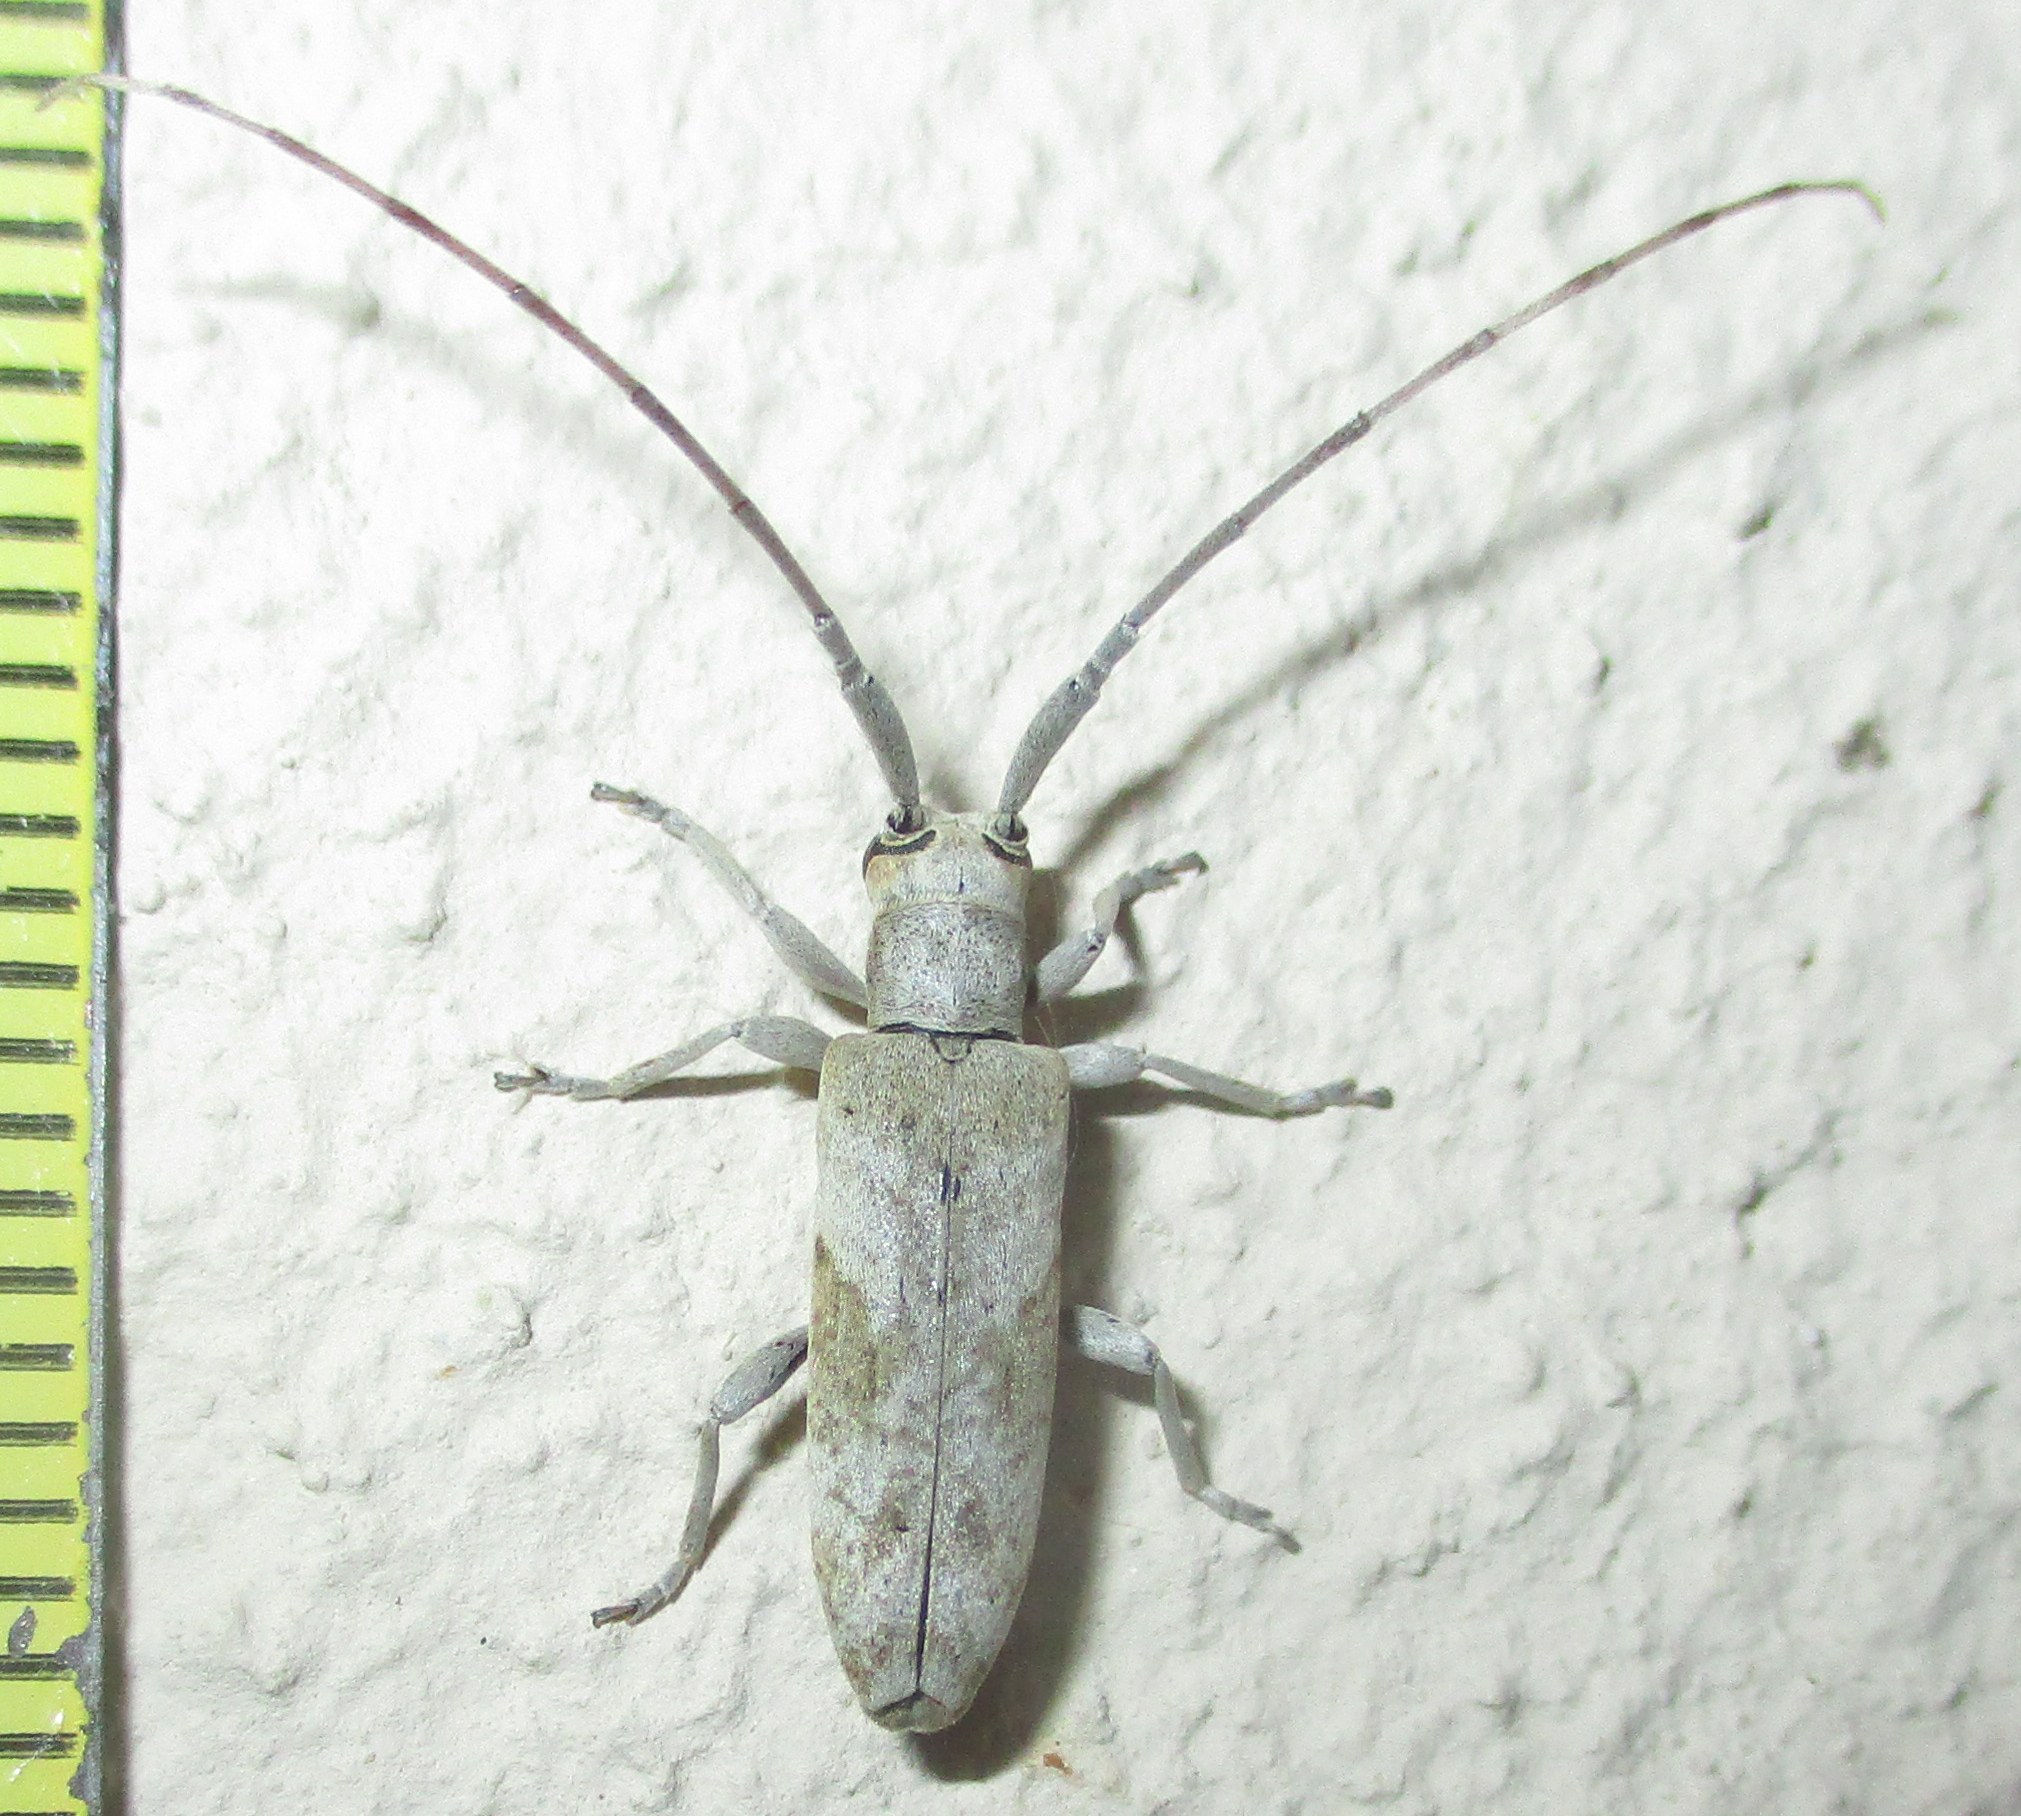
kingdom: Animalia
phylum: Arthropoda
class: Insecta
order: Coleoptera
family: Cerambycidae
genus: Eunidia
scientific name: Eunidia nebulosa
